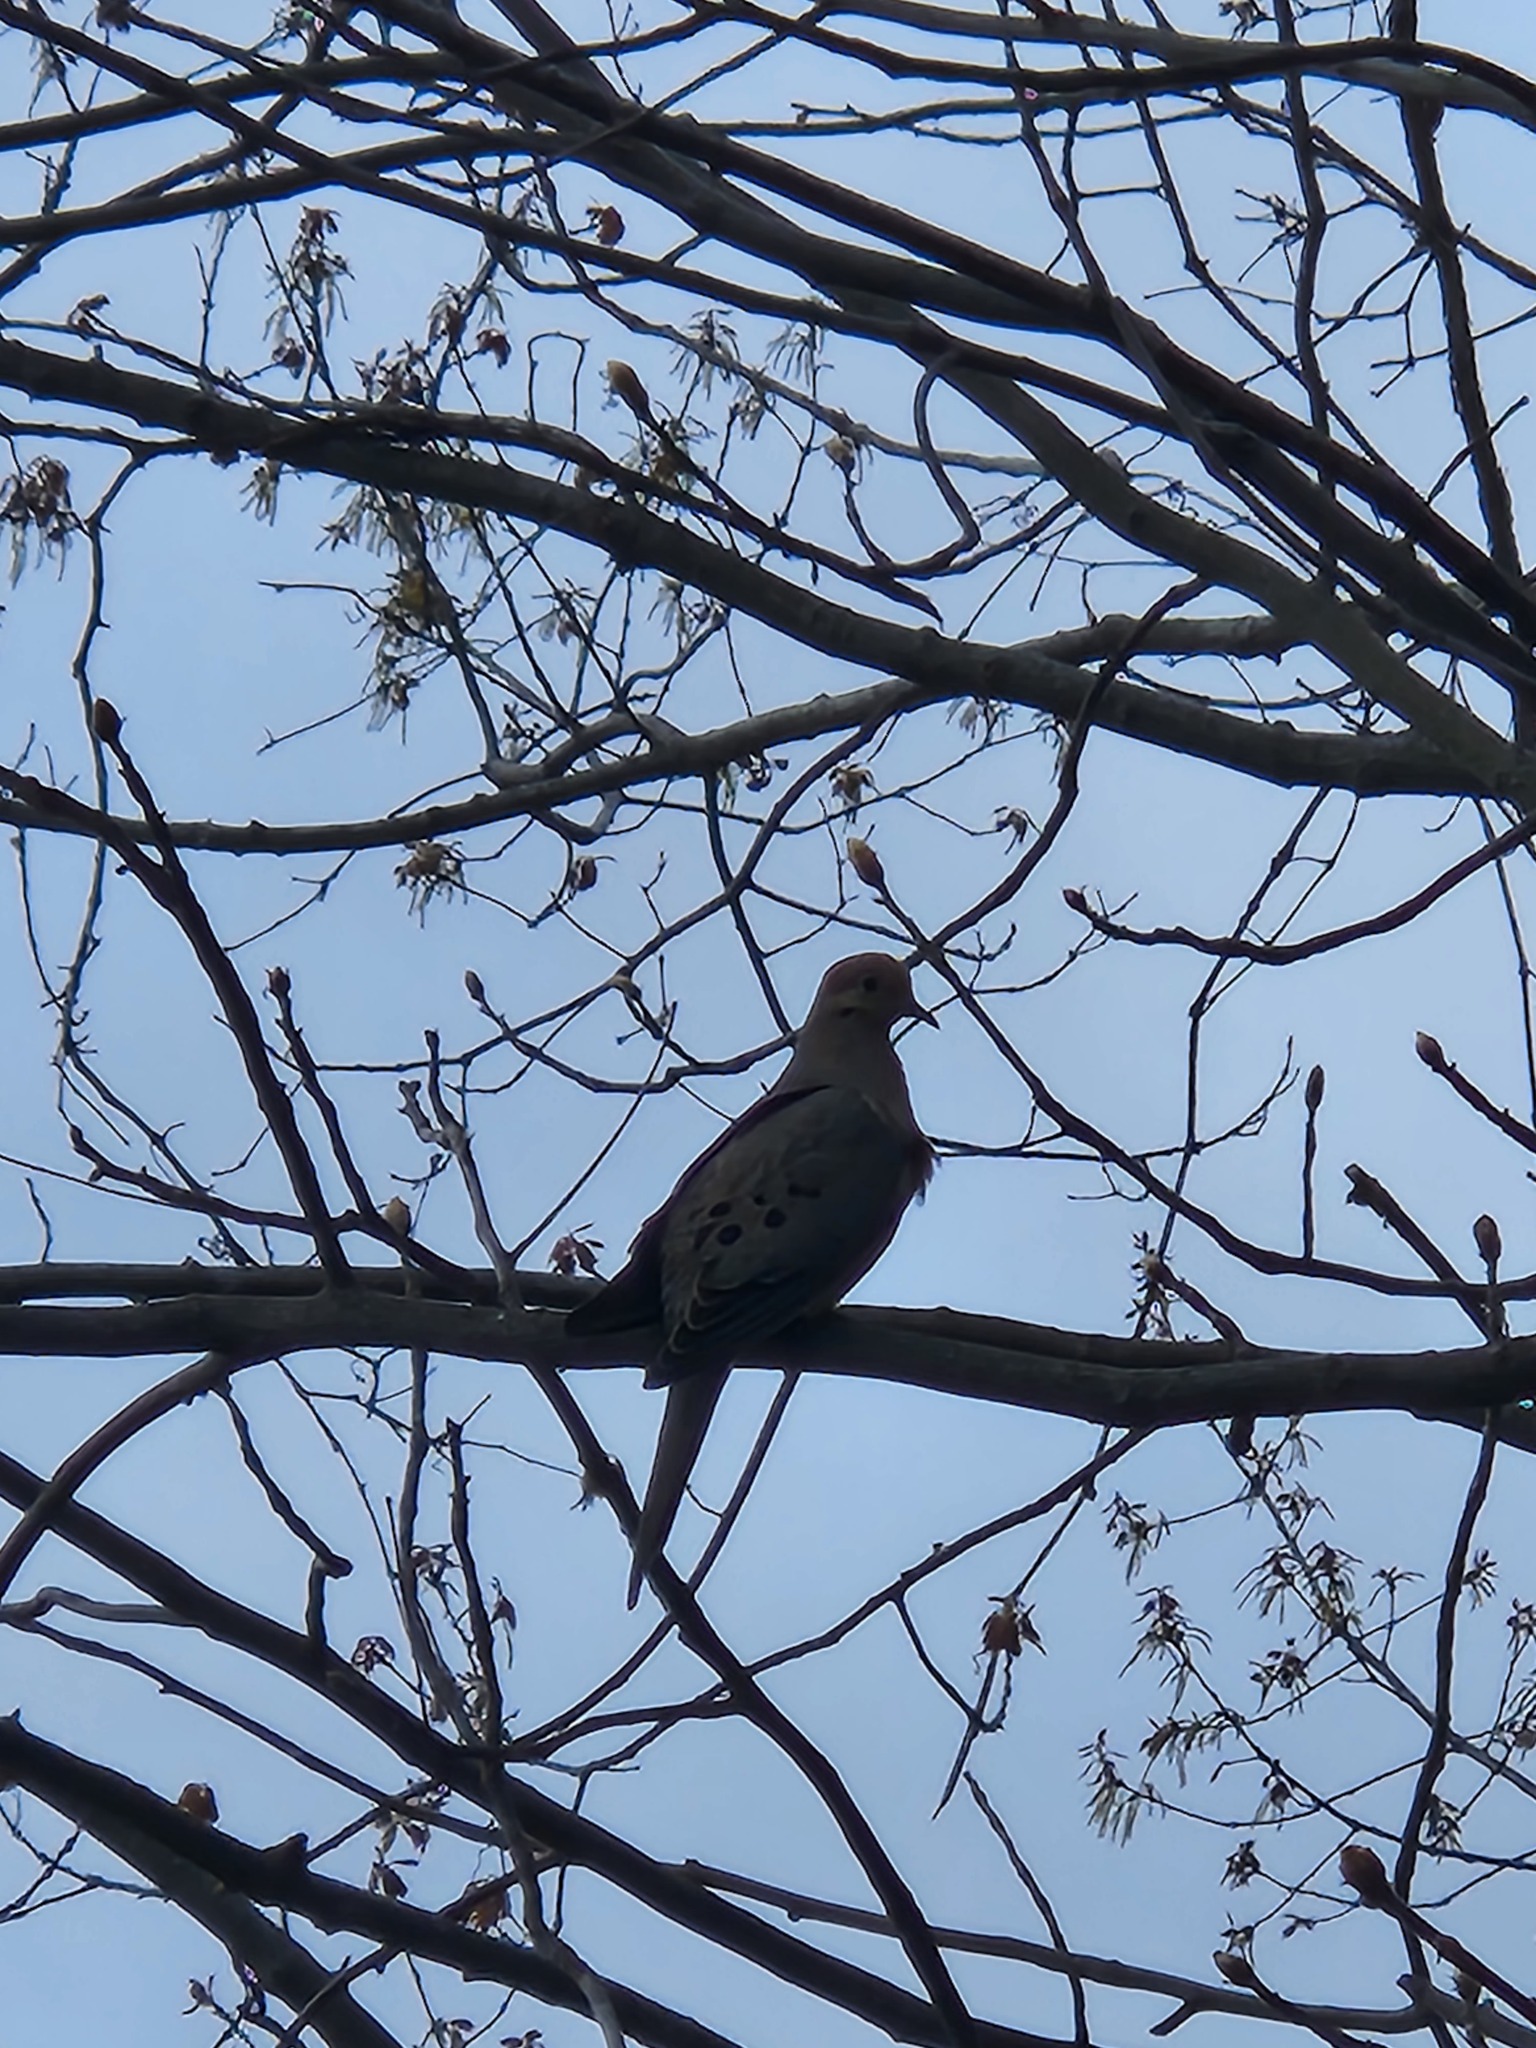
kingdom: Animalia
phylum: Chordata
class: Aves
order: Columbiformes
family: Columbidae
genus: Zenaida
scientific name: Zenaida macroura
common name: Mourning dove
